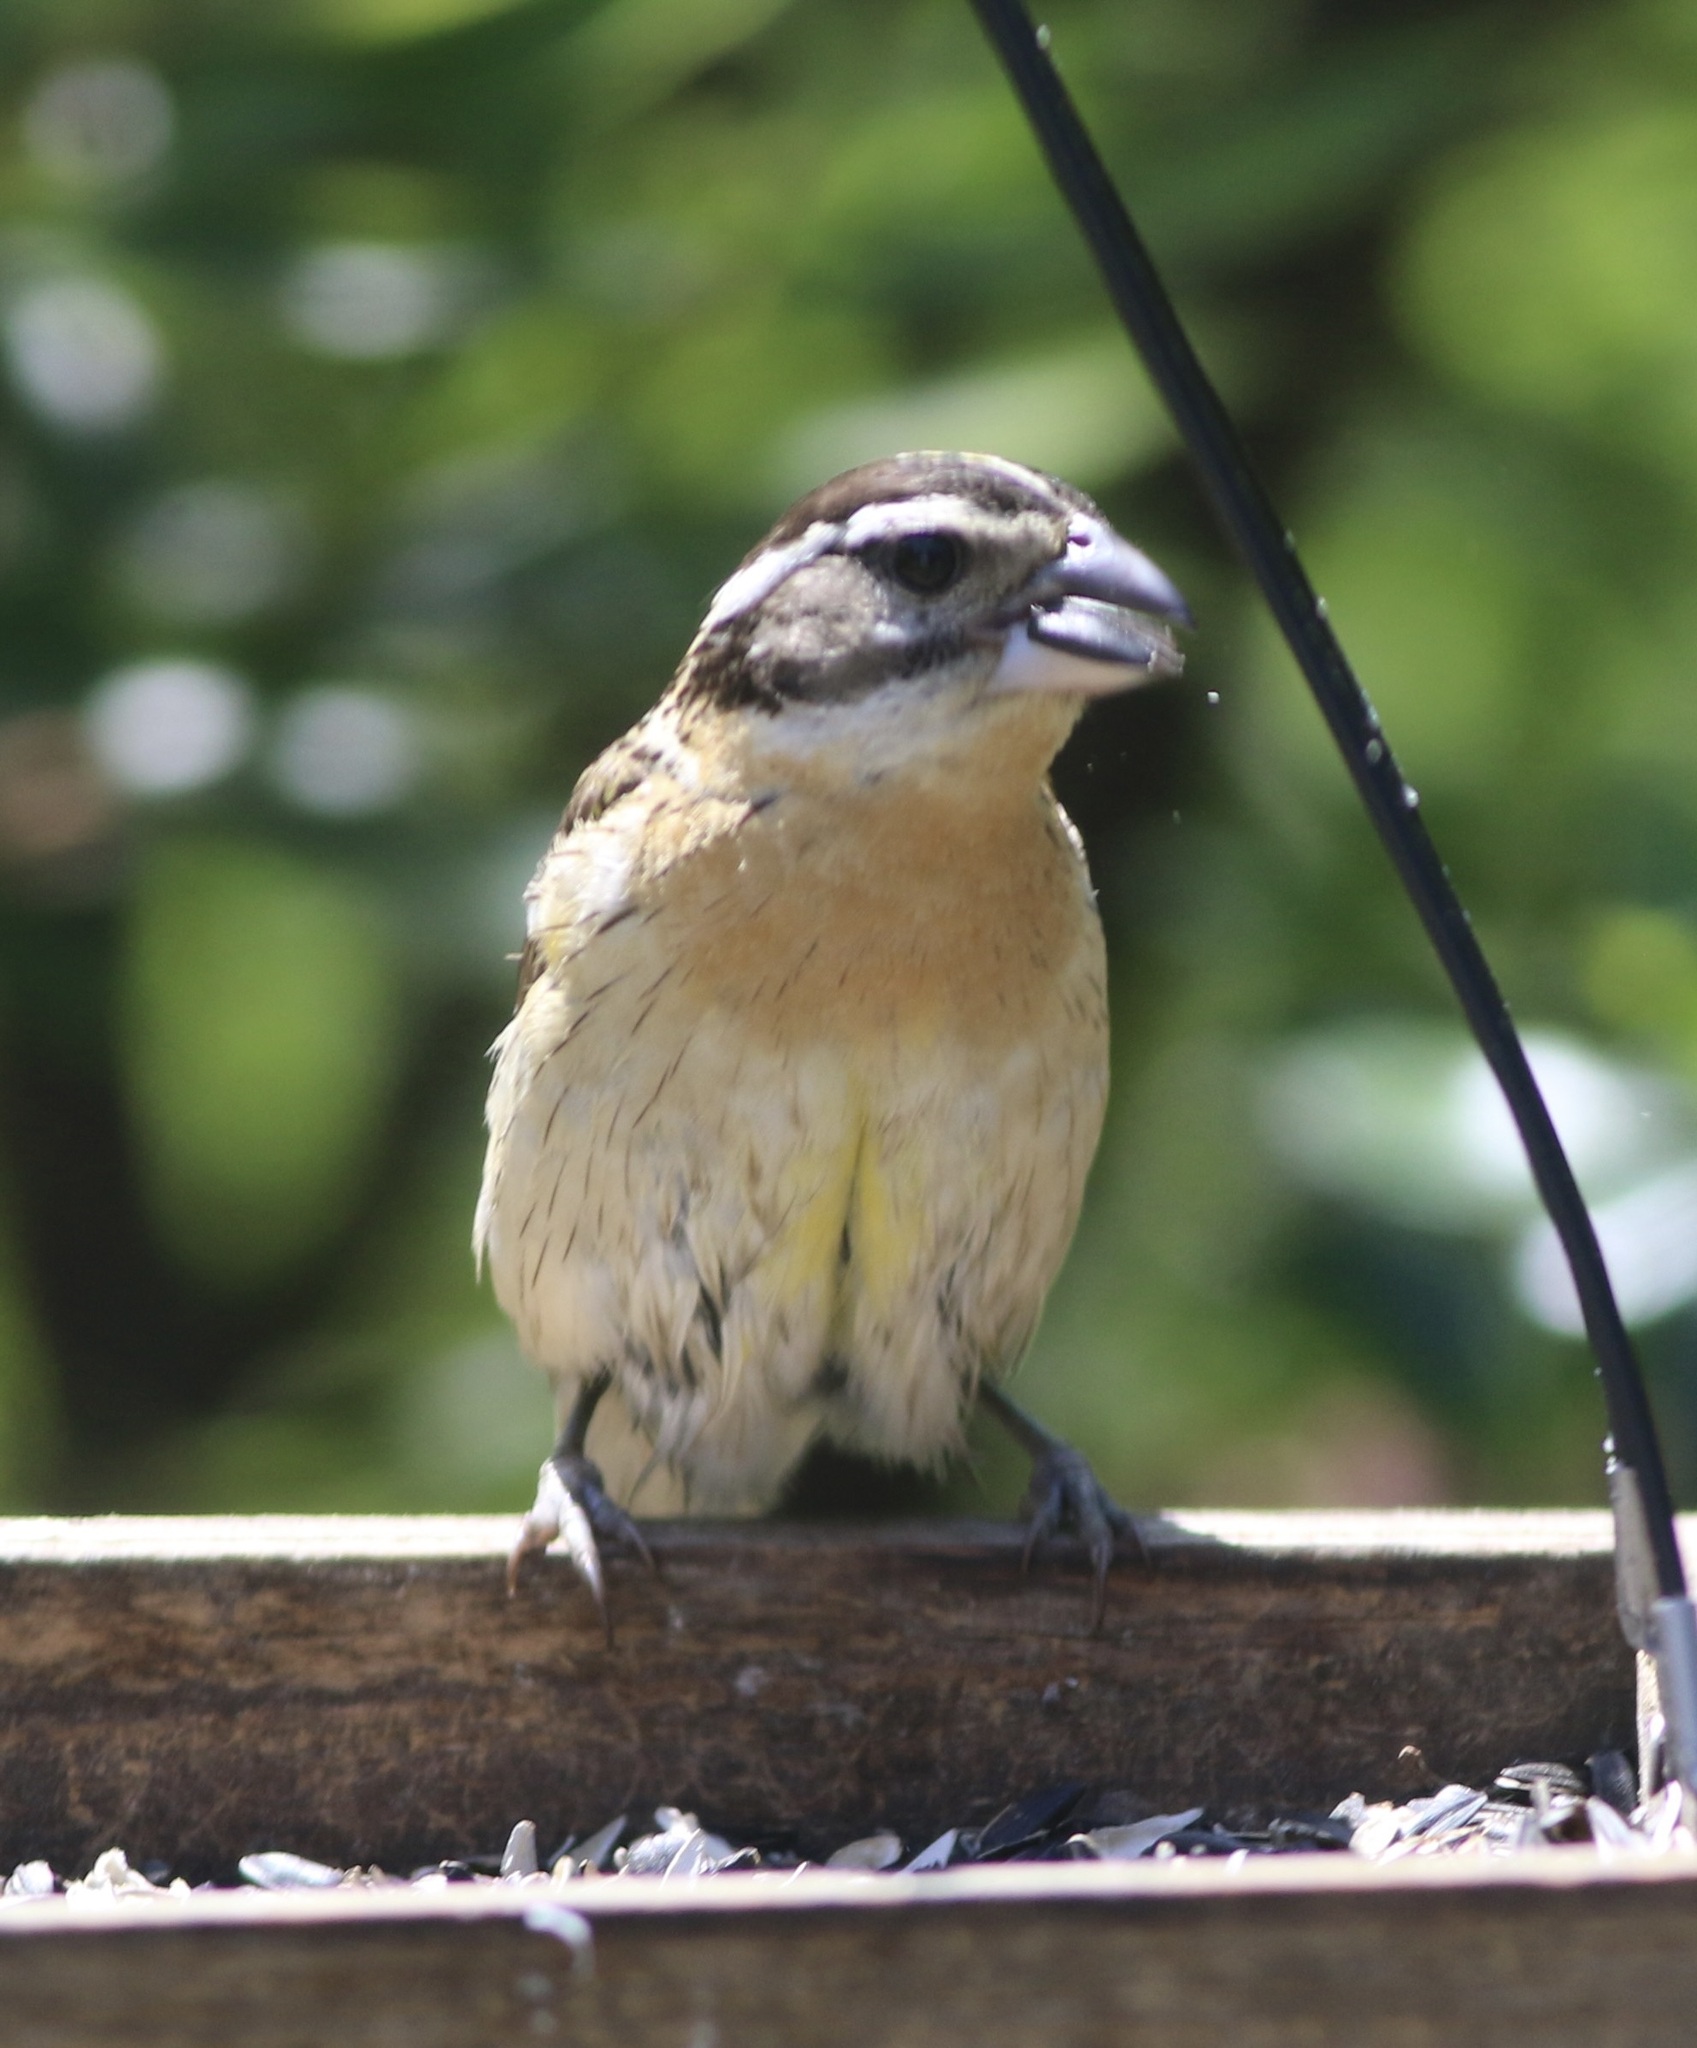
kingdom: Animalia
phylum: Chordata
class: Aves
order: Passeriformes
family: Cardinalidae
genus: Pheucticus
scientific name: Pheucticus melanocephalus
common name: Black-headed grosbeak
